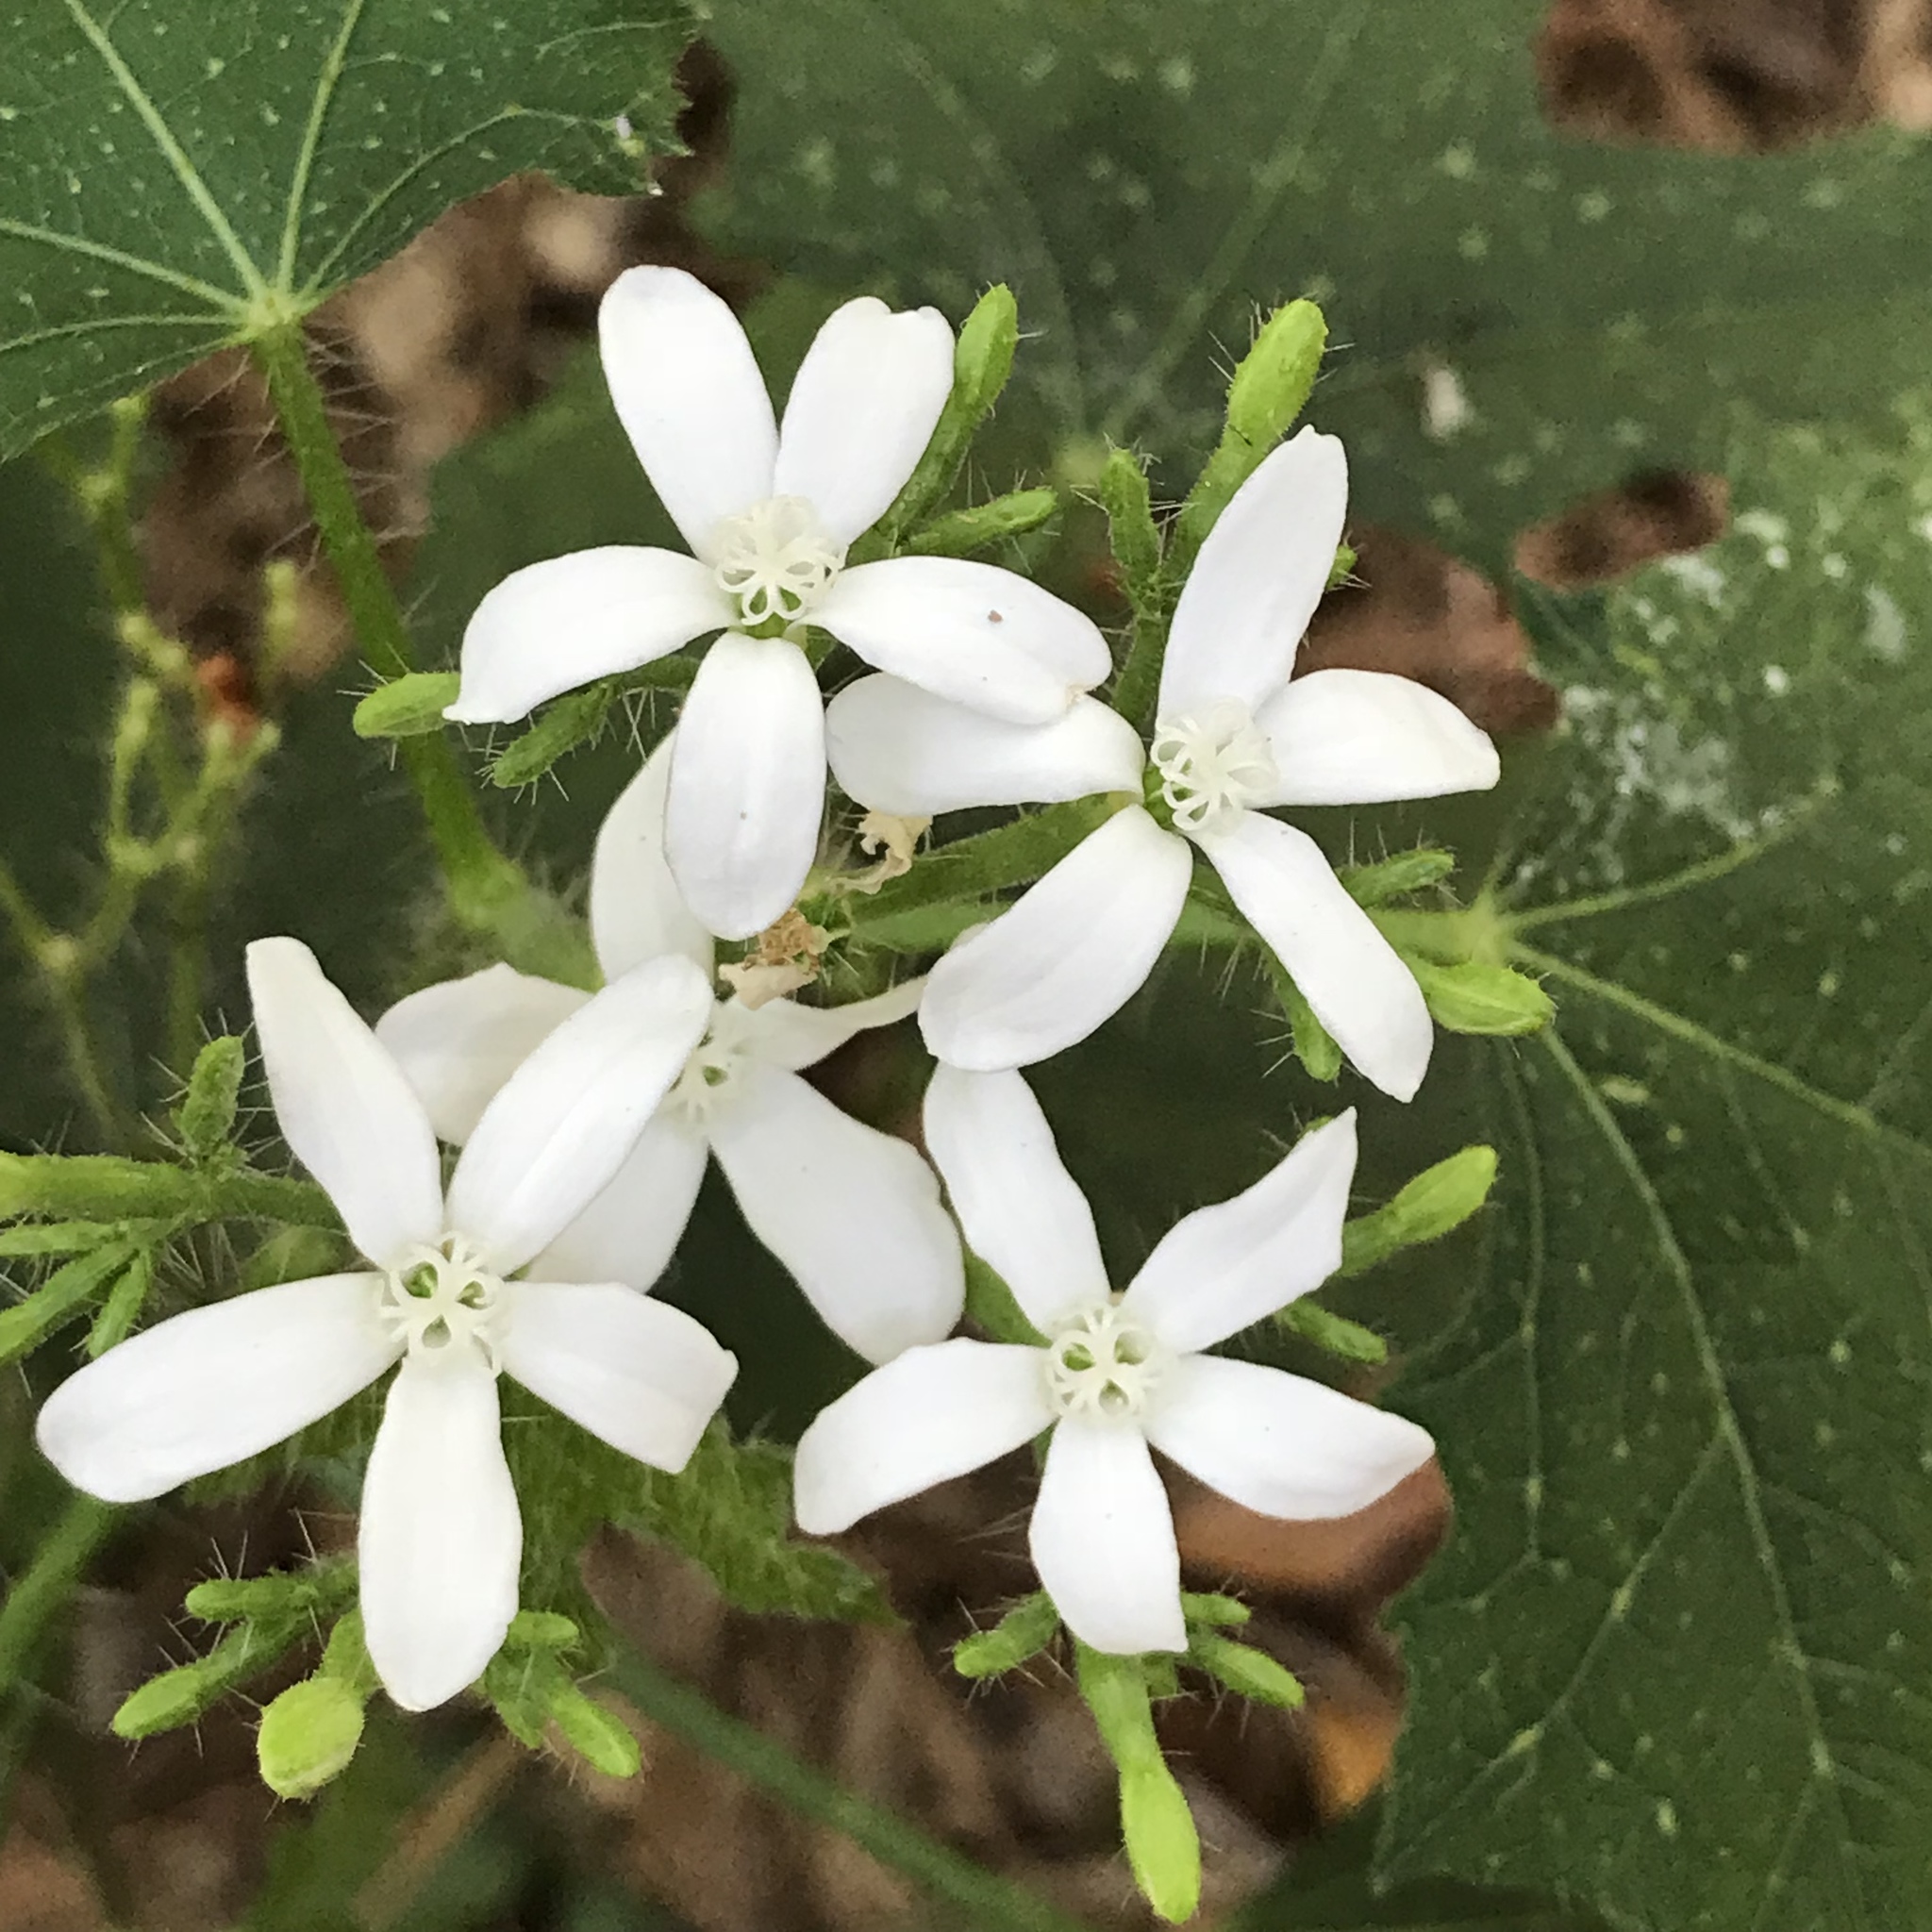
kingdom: Plantae
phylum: Tracheophyta
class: Magnoliopsida
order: Malpighiales
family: Euphorbiaceae
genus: Cnidoscolus
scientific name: Cnidoscolus stimulosus
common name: Bull-nettle
